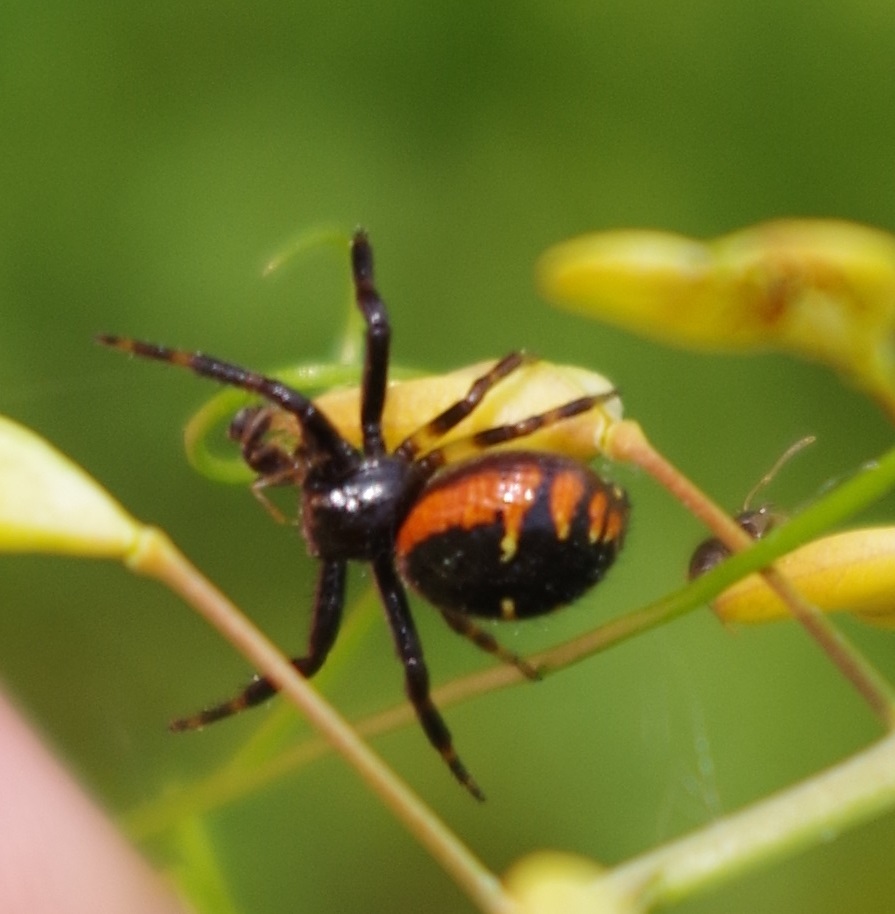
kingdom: Animalia
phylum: Arthropoda
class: Arachnida
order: Araneae
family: Thomisidae
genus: Synema
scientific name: Synema globosum
